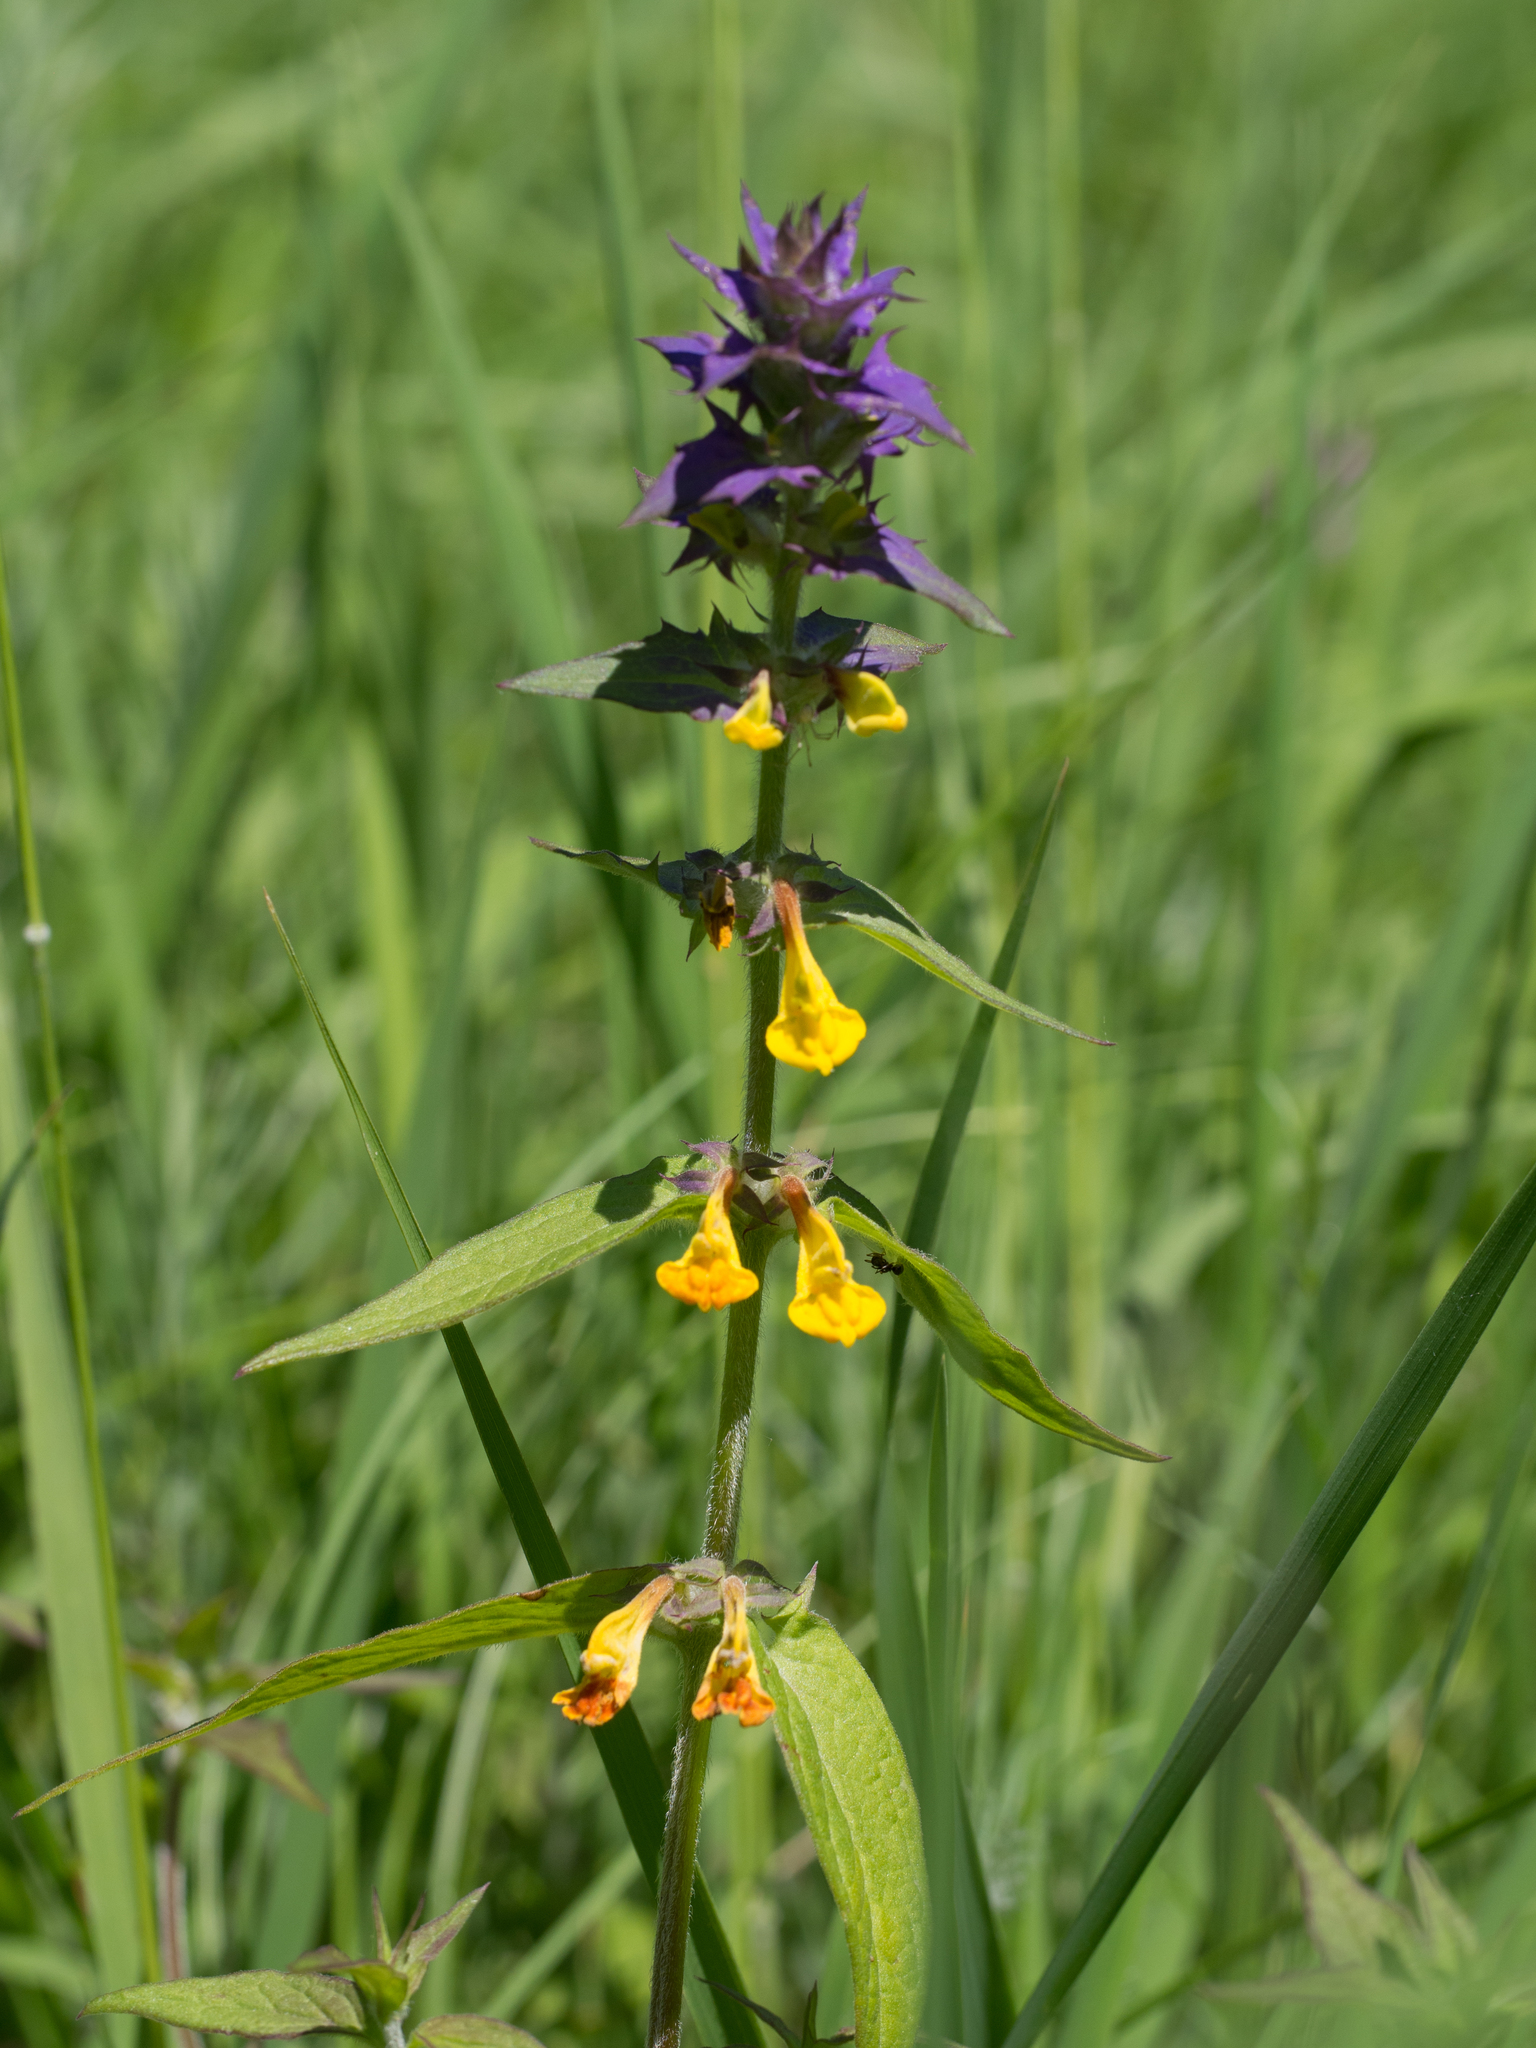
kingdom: Plantae
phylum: Tracheophyta
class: Magnoliopsida
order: Lamiales
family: Orobanchaceae
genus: Melampyrum
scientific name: Melampyrum nemorosum
